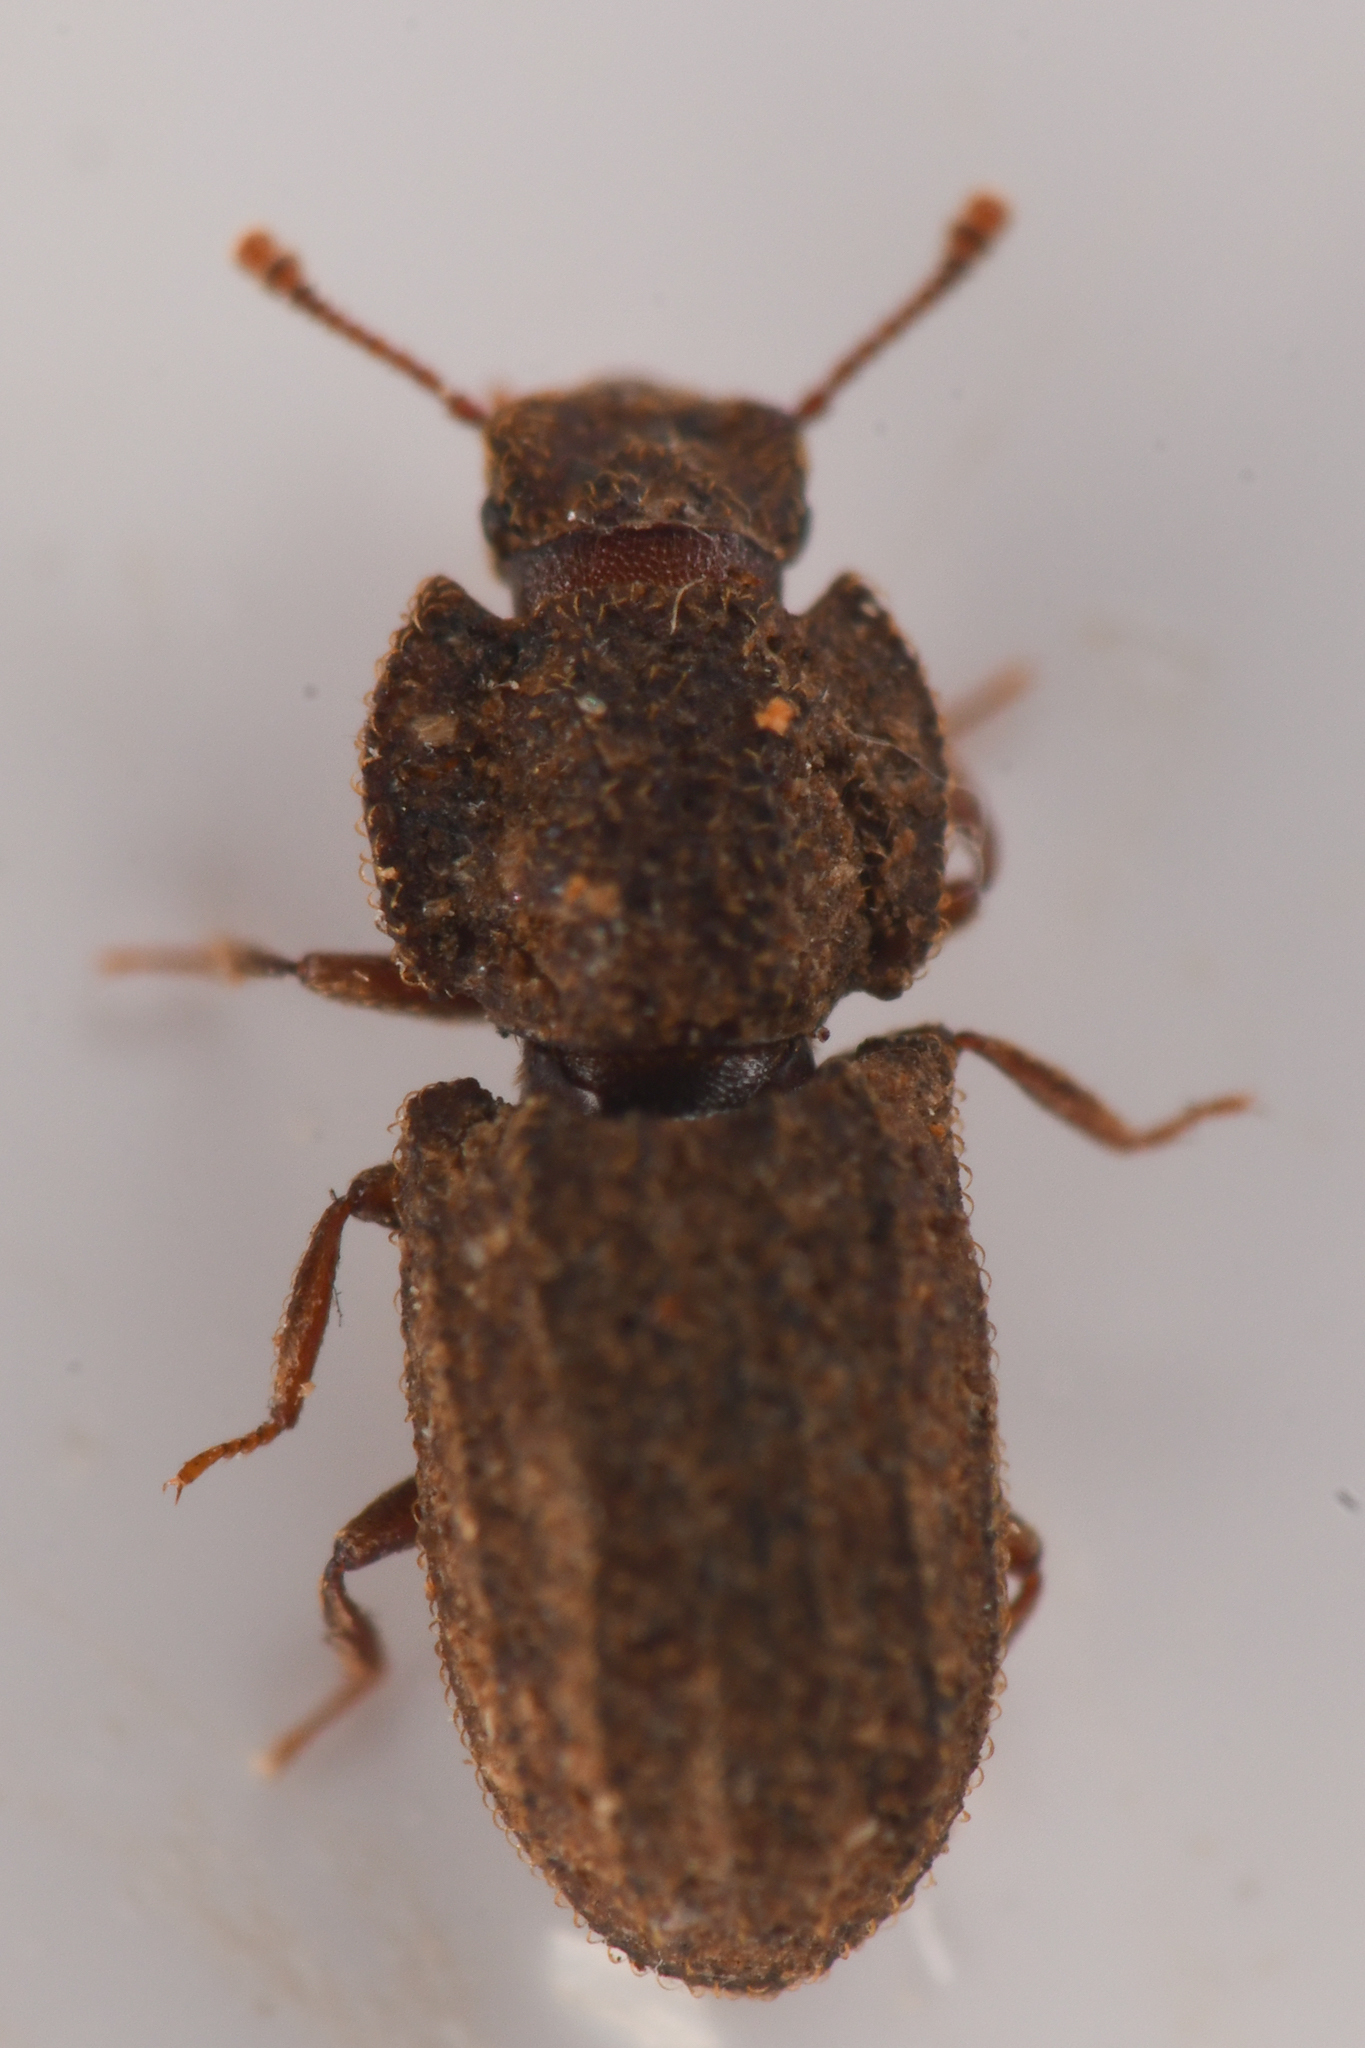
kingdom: Animalia
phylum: Arthropoda
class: Insecta
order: Coleoptera
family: Zopheridae
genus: Megataphrus
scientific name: Megataphrus tenuicornis
